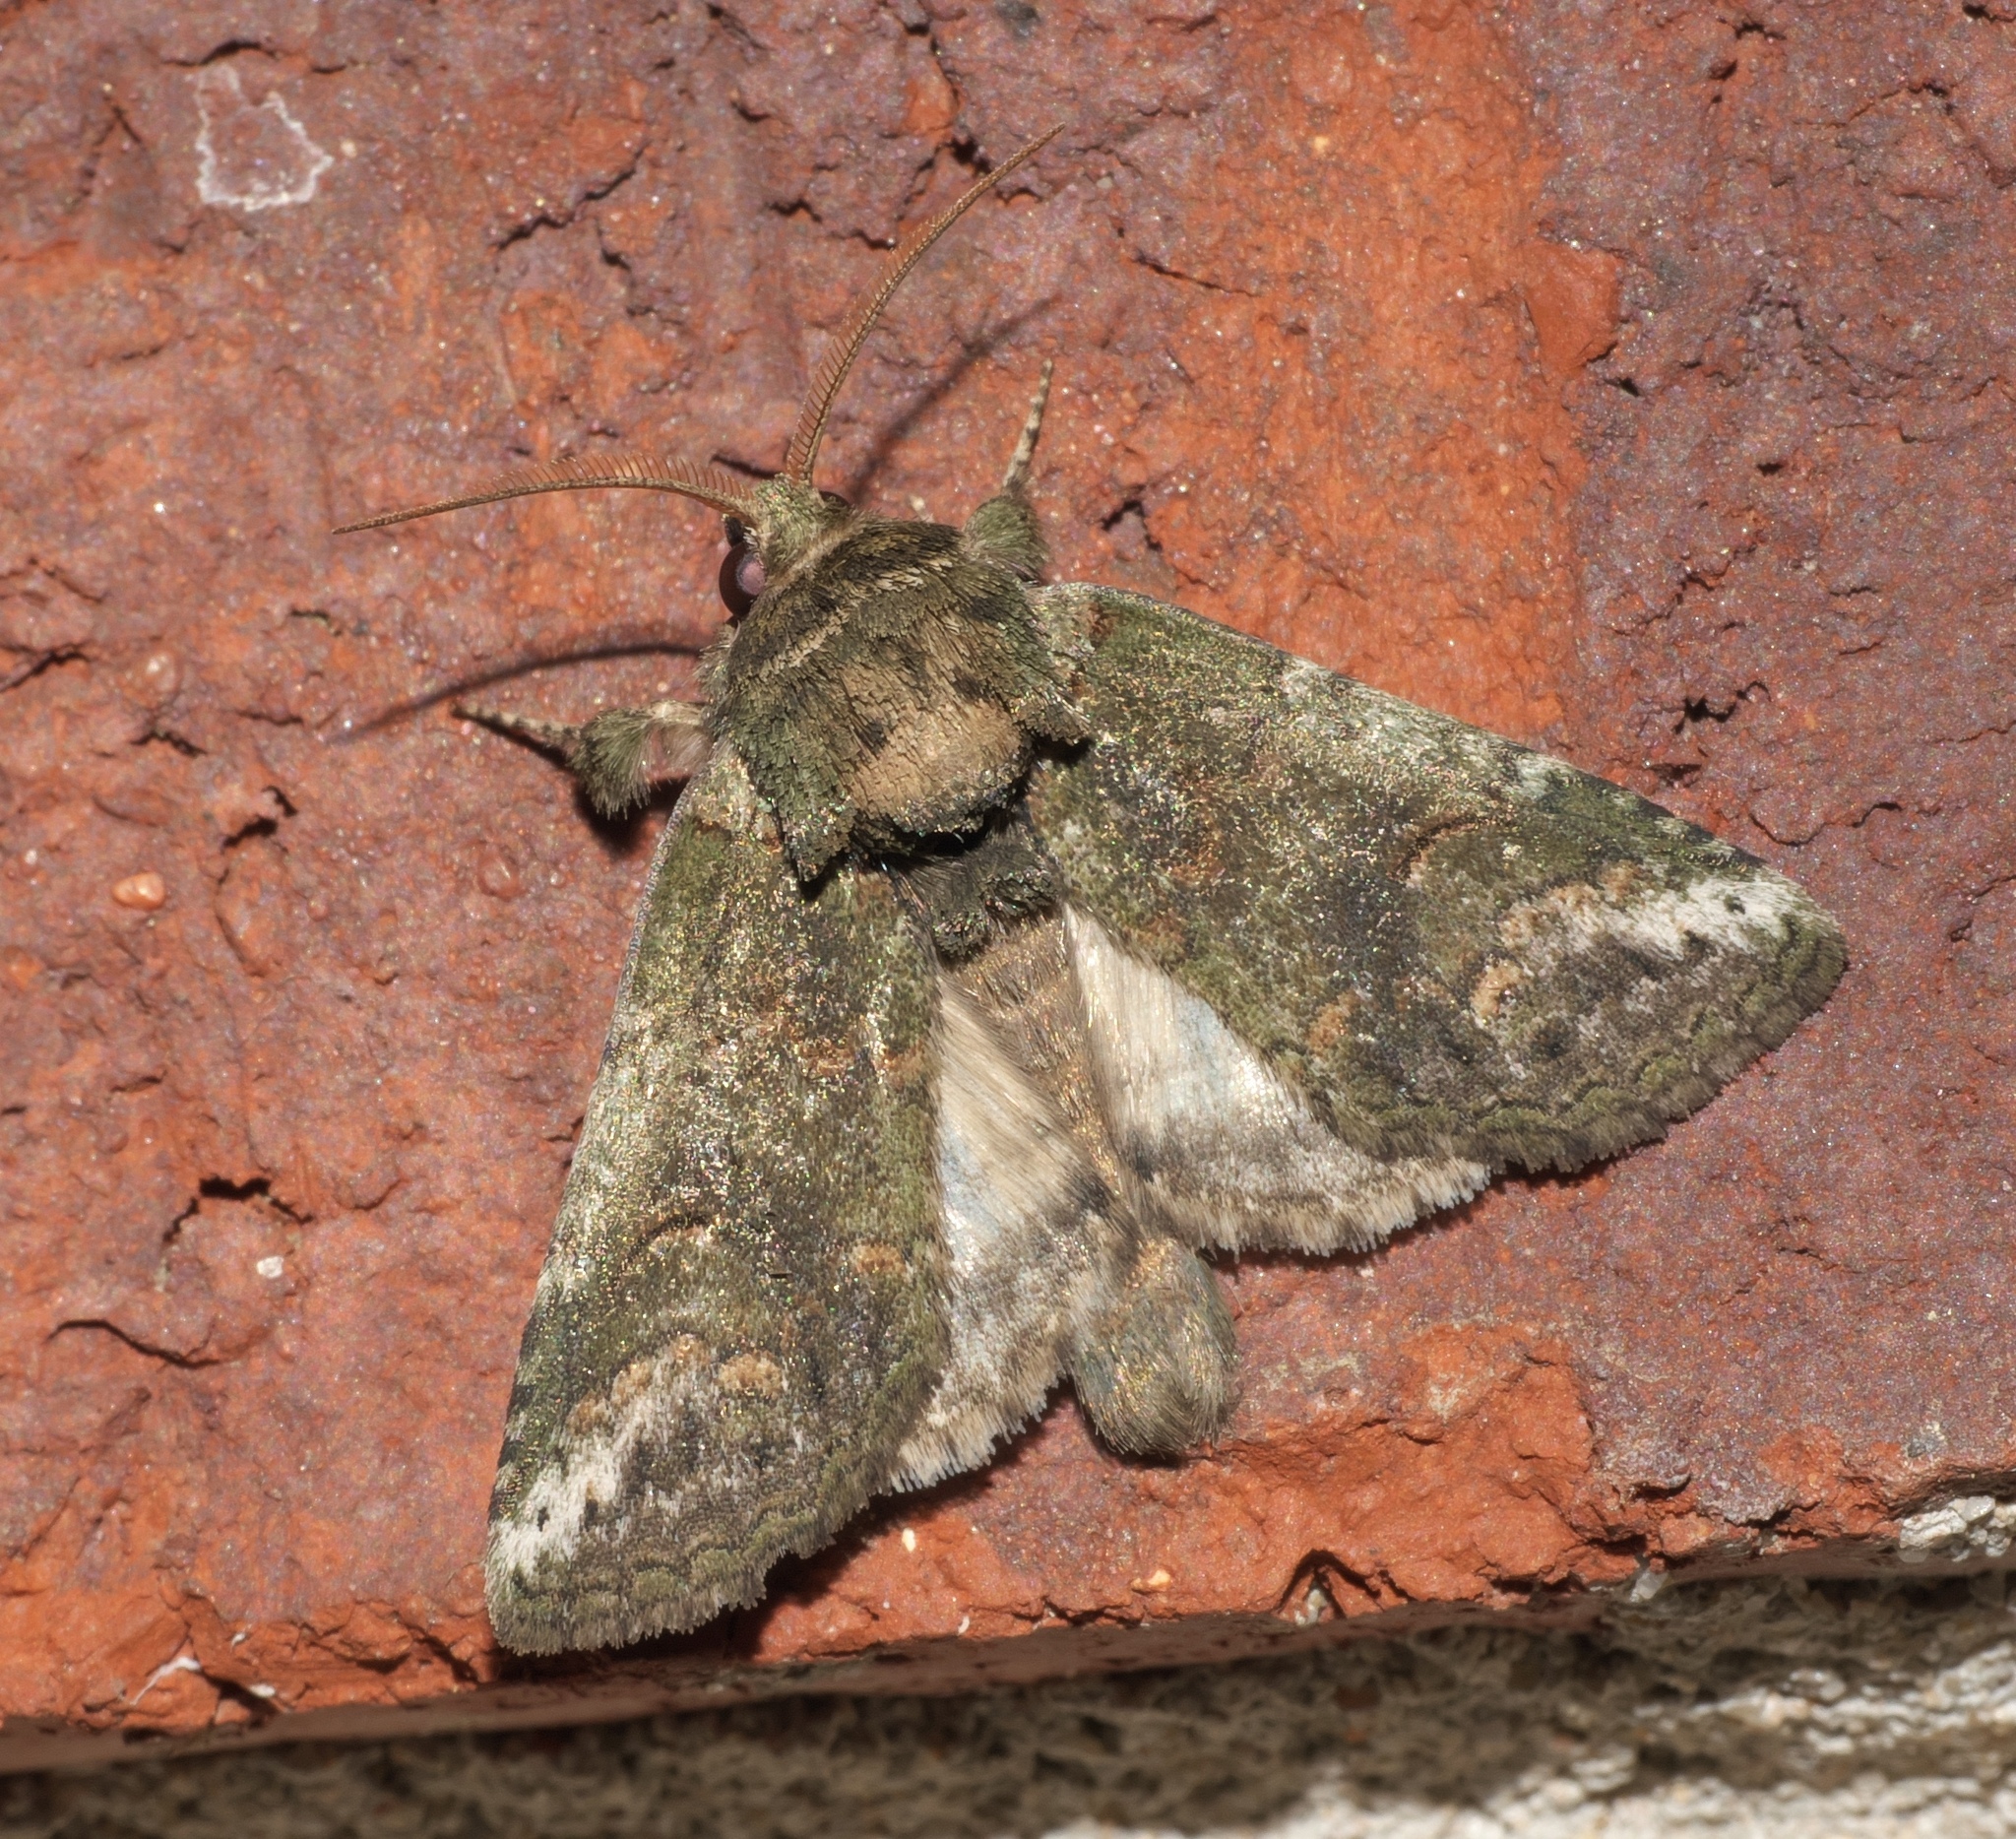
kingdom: Animalia
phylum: Arthropoda
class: Insecta
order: Lepidoptera
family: Notodontidae
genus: Rifargia
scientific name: Rifargia
